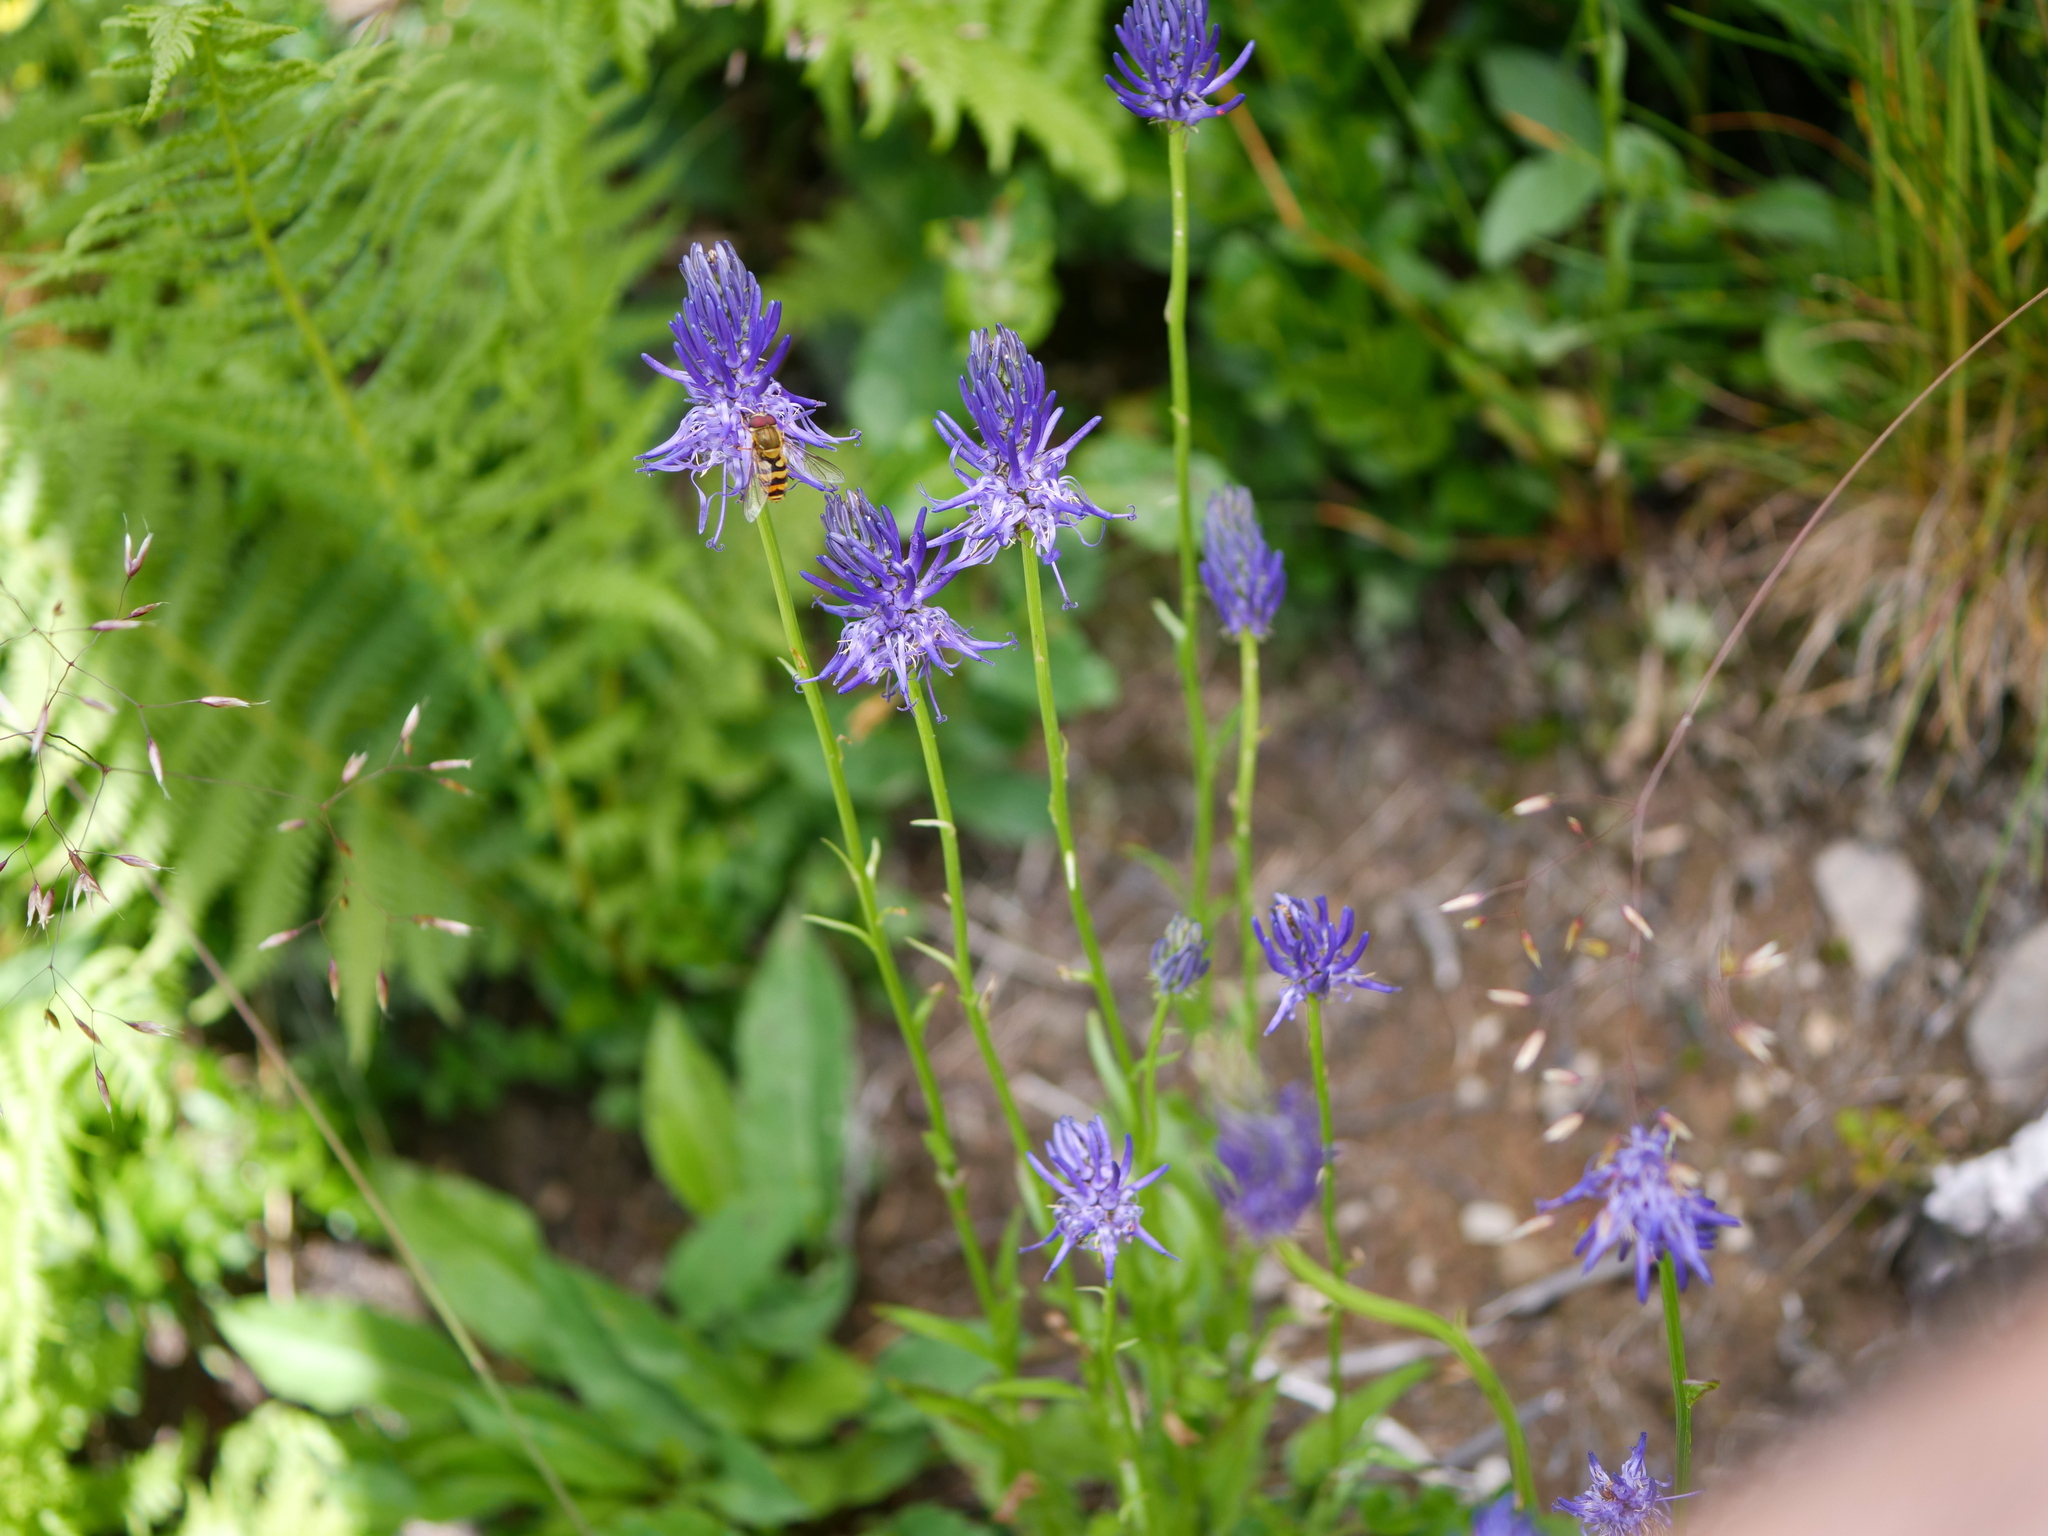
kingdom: Plantae
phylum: Tracheophyta
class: Magnoliopsida
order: Asterales
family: Campanulaceae
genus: Phyteuma
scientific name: Phyteuma betonicifolium
